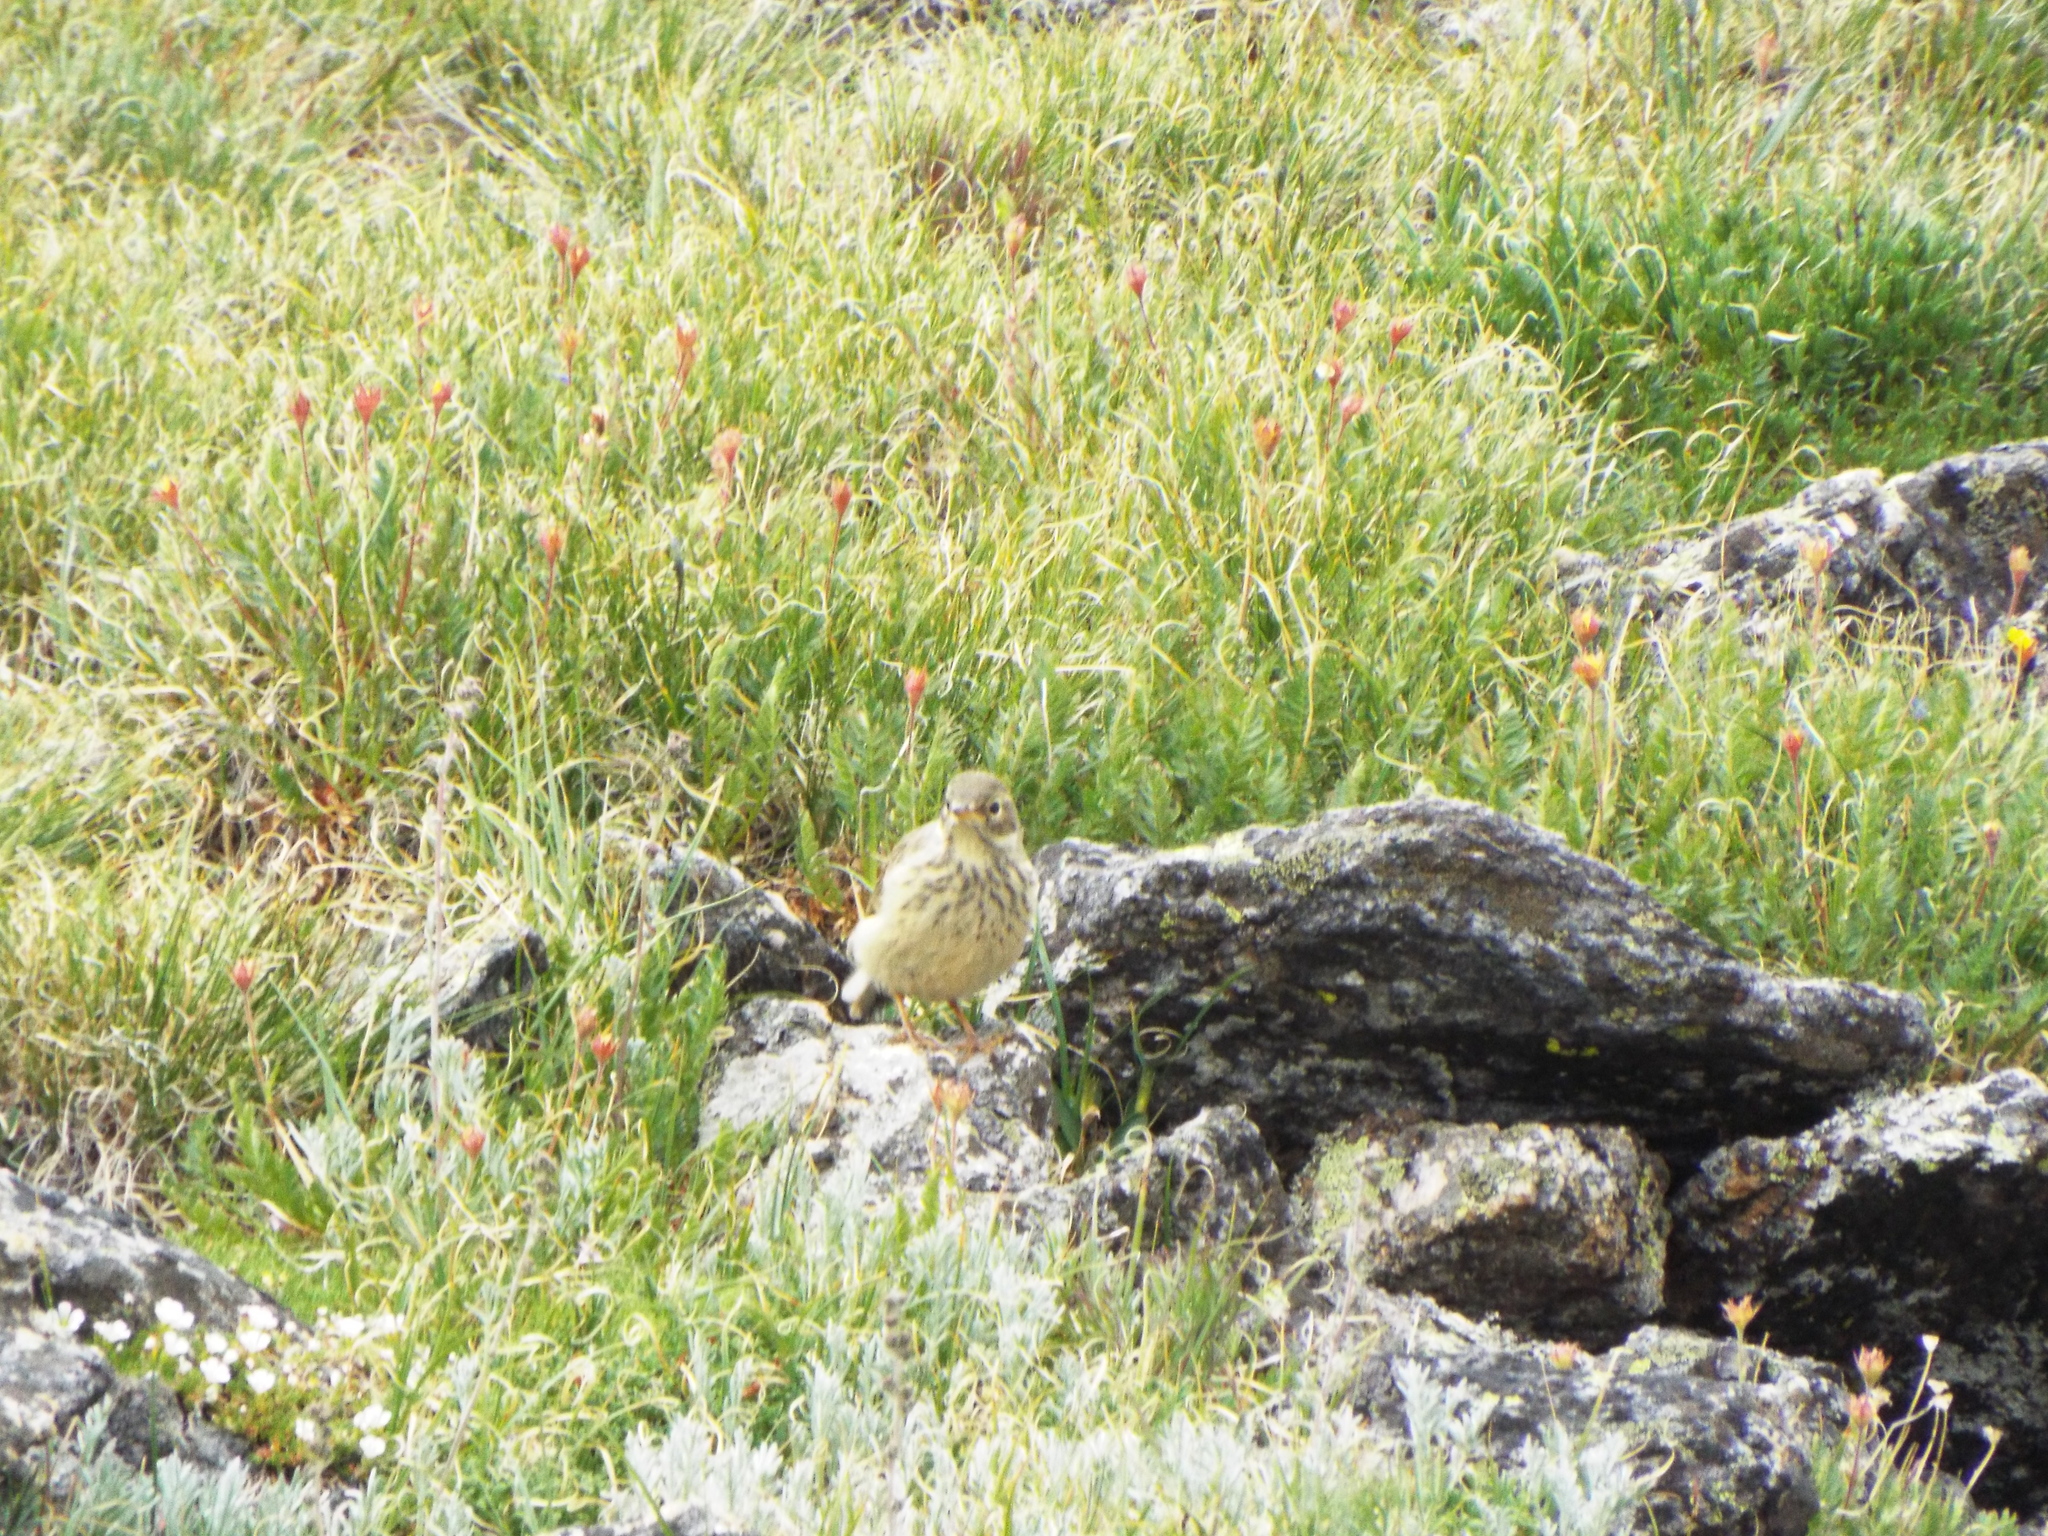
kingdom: Animalia
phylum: Chordata
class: Aves
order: Passeriformes
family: Motacillidae
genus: Anthus
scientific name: Anthus rubescens
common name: Buff-bellied pipit
